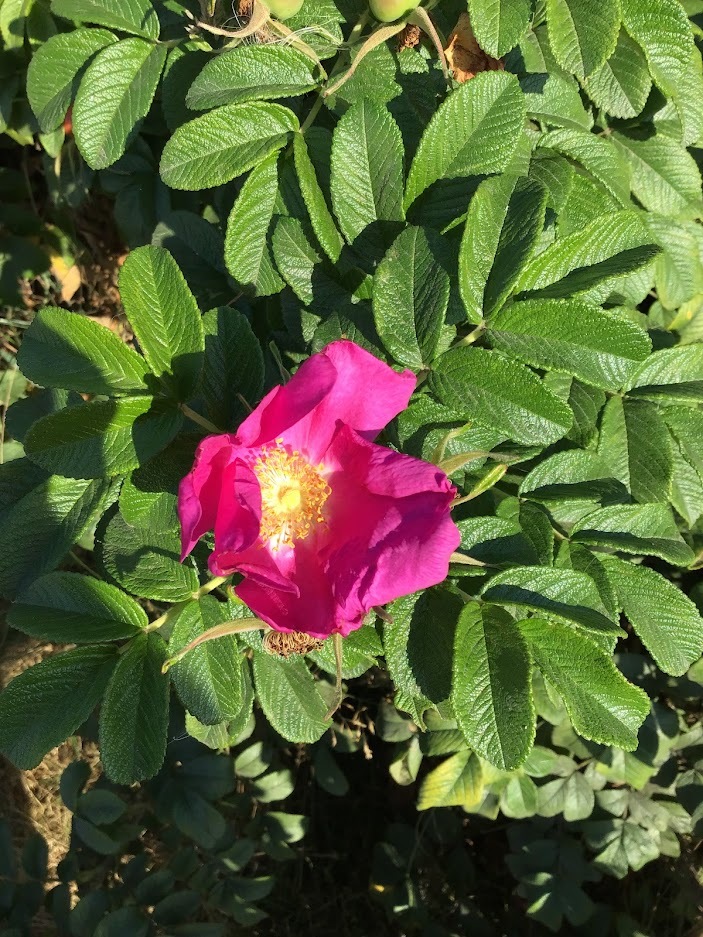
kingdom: Plantae
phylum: Tracheophyta
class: Magnoliopsida
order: Rosales
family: Rosaceae
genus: Rosa
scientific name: Rosa rugosa
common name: Japanese rose
